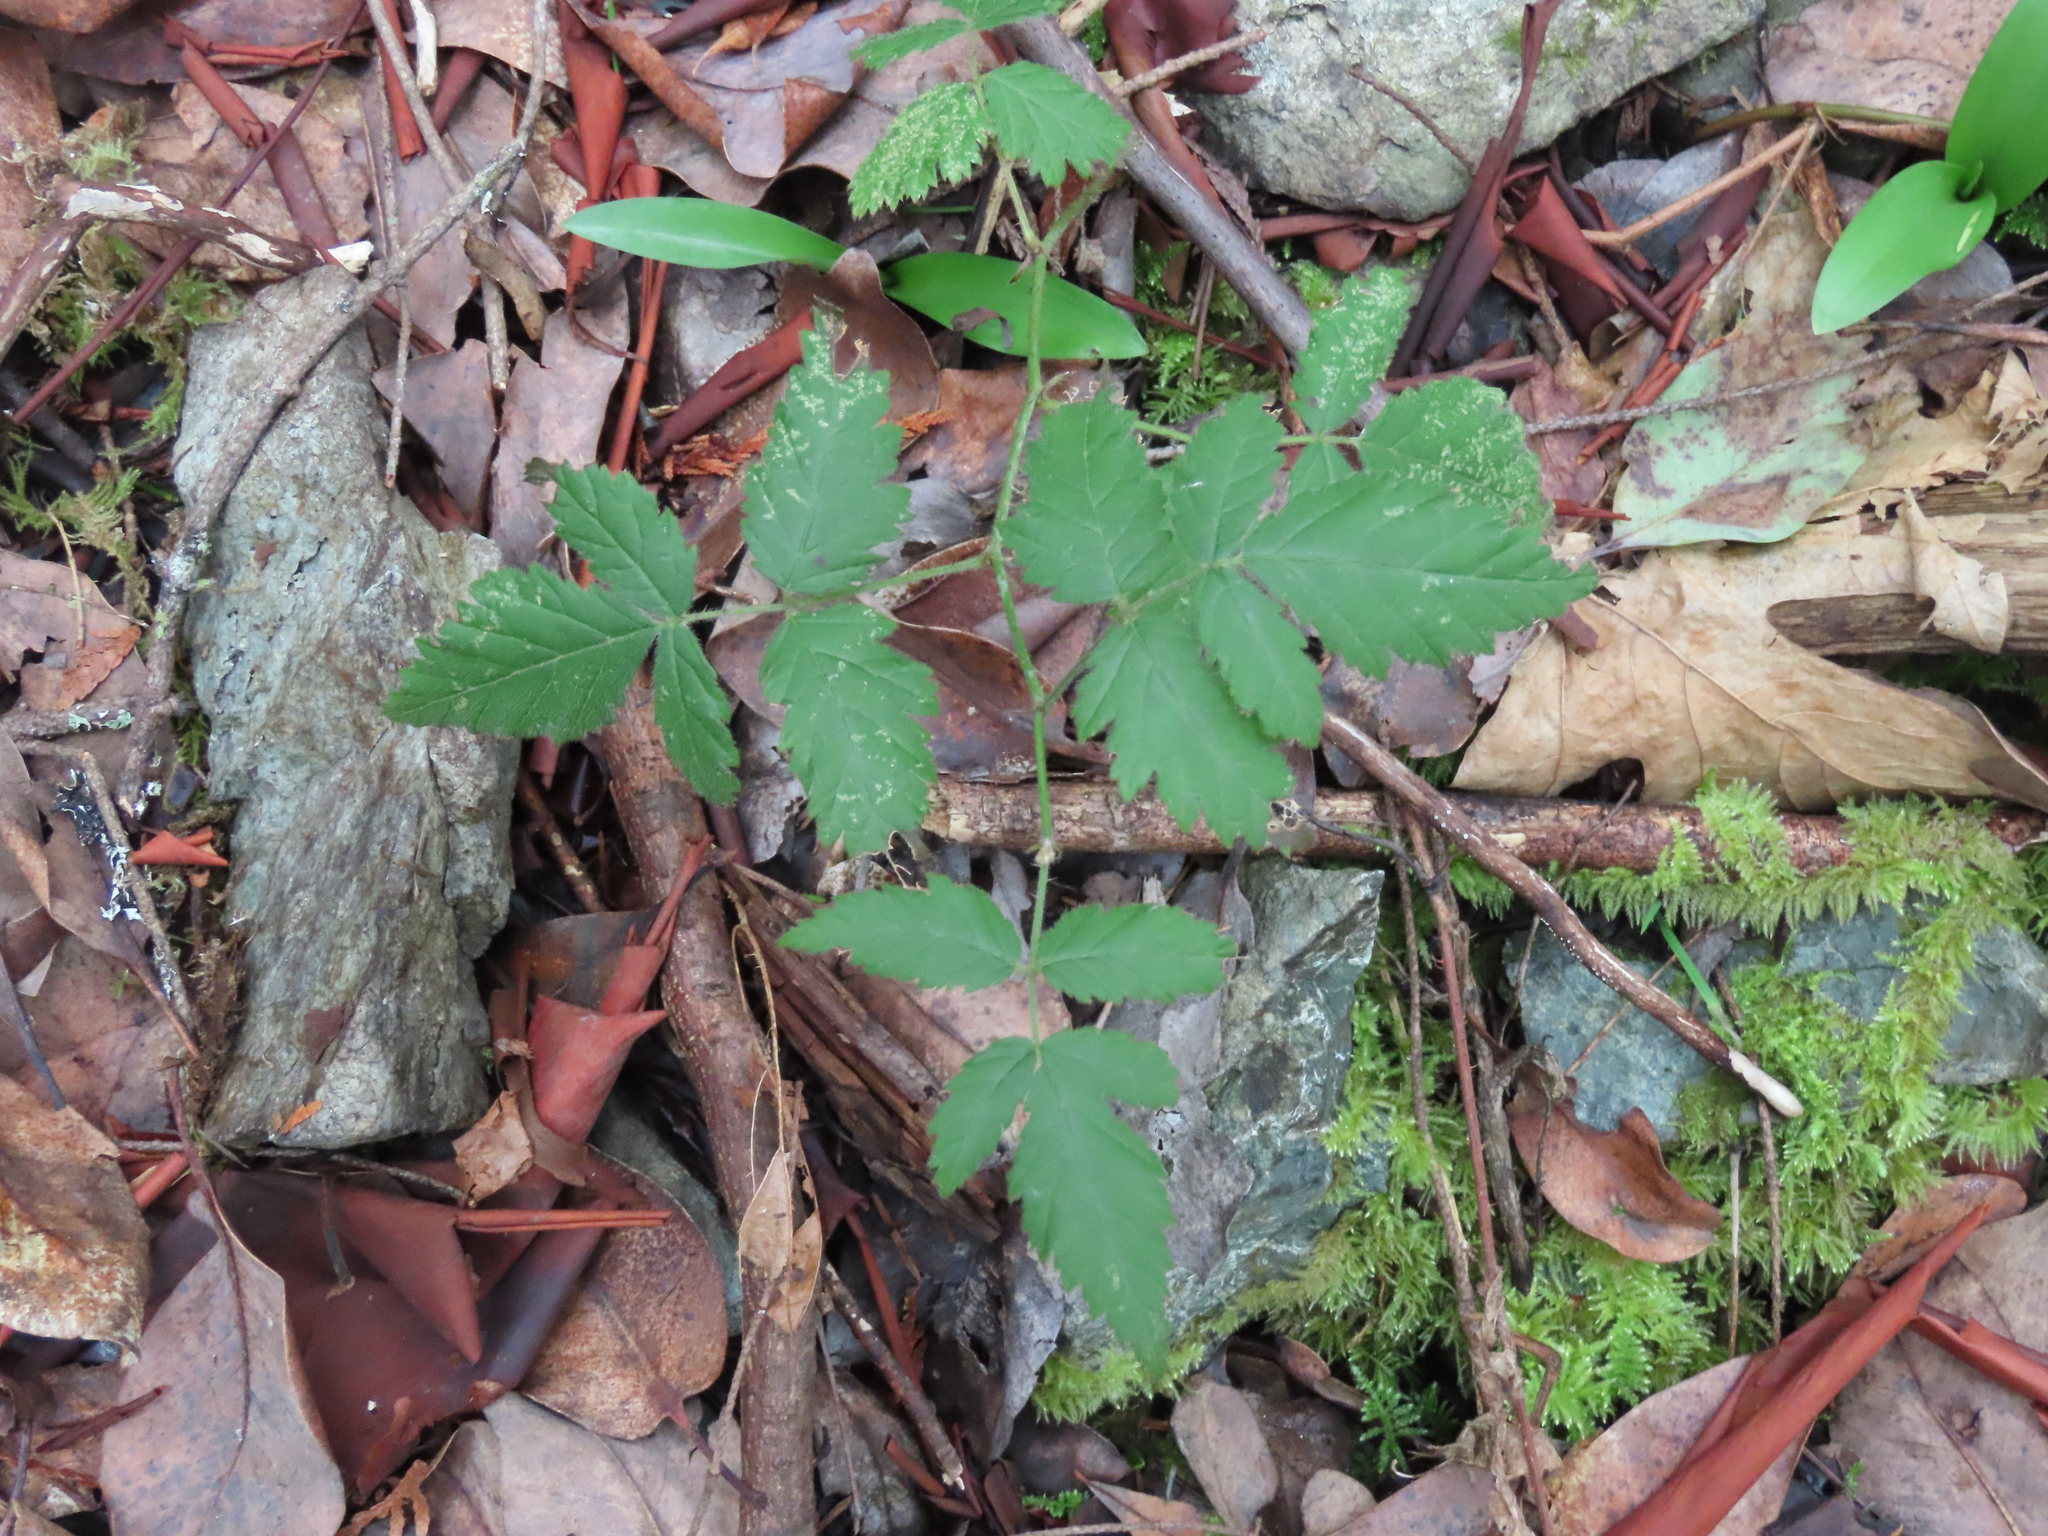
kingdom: Plantae
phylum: Tracheophyta
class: Magnoliopsida
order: Rosales
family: Rosaceae
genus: Rubus
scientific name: Rubus ursinus
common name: Pacific blackberry
